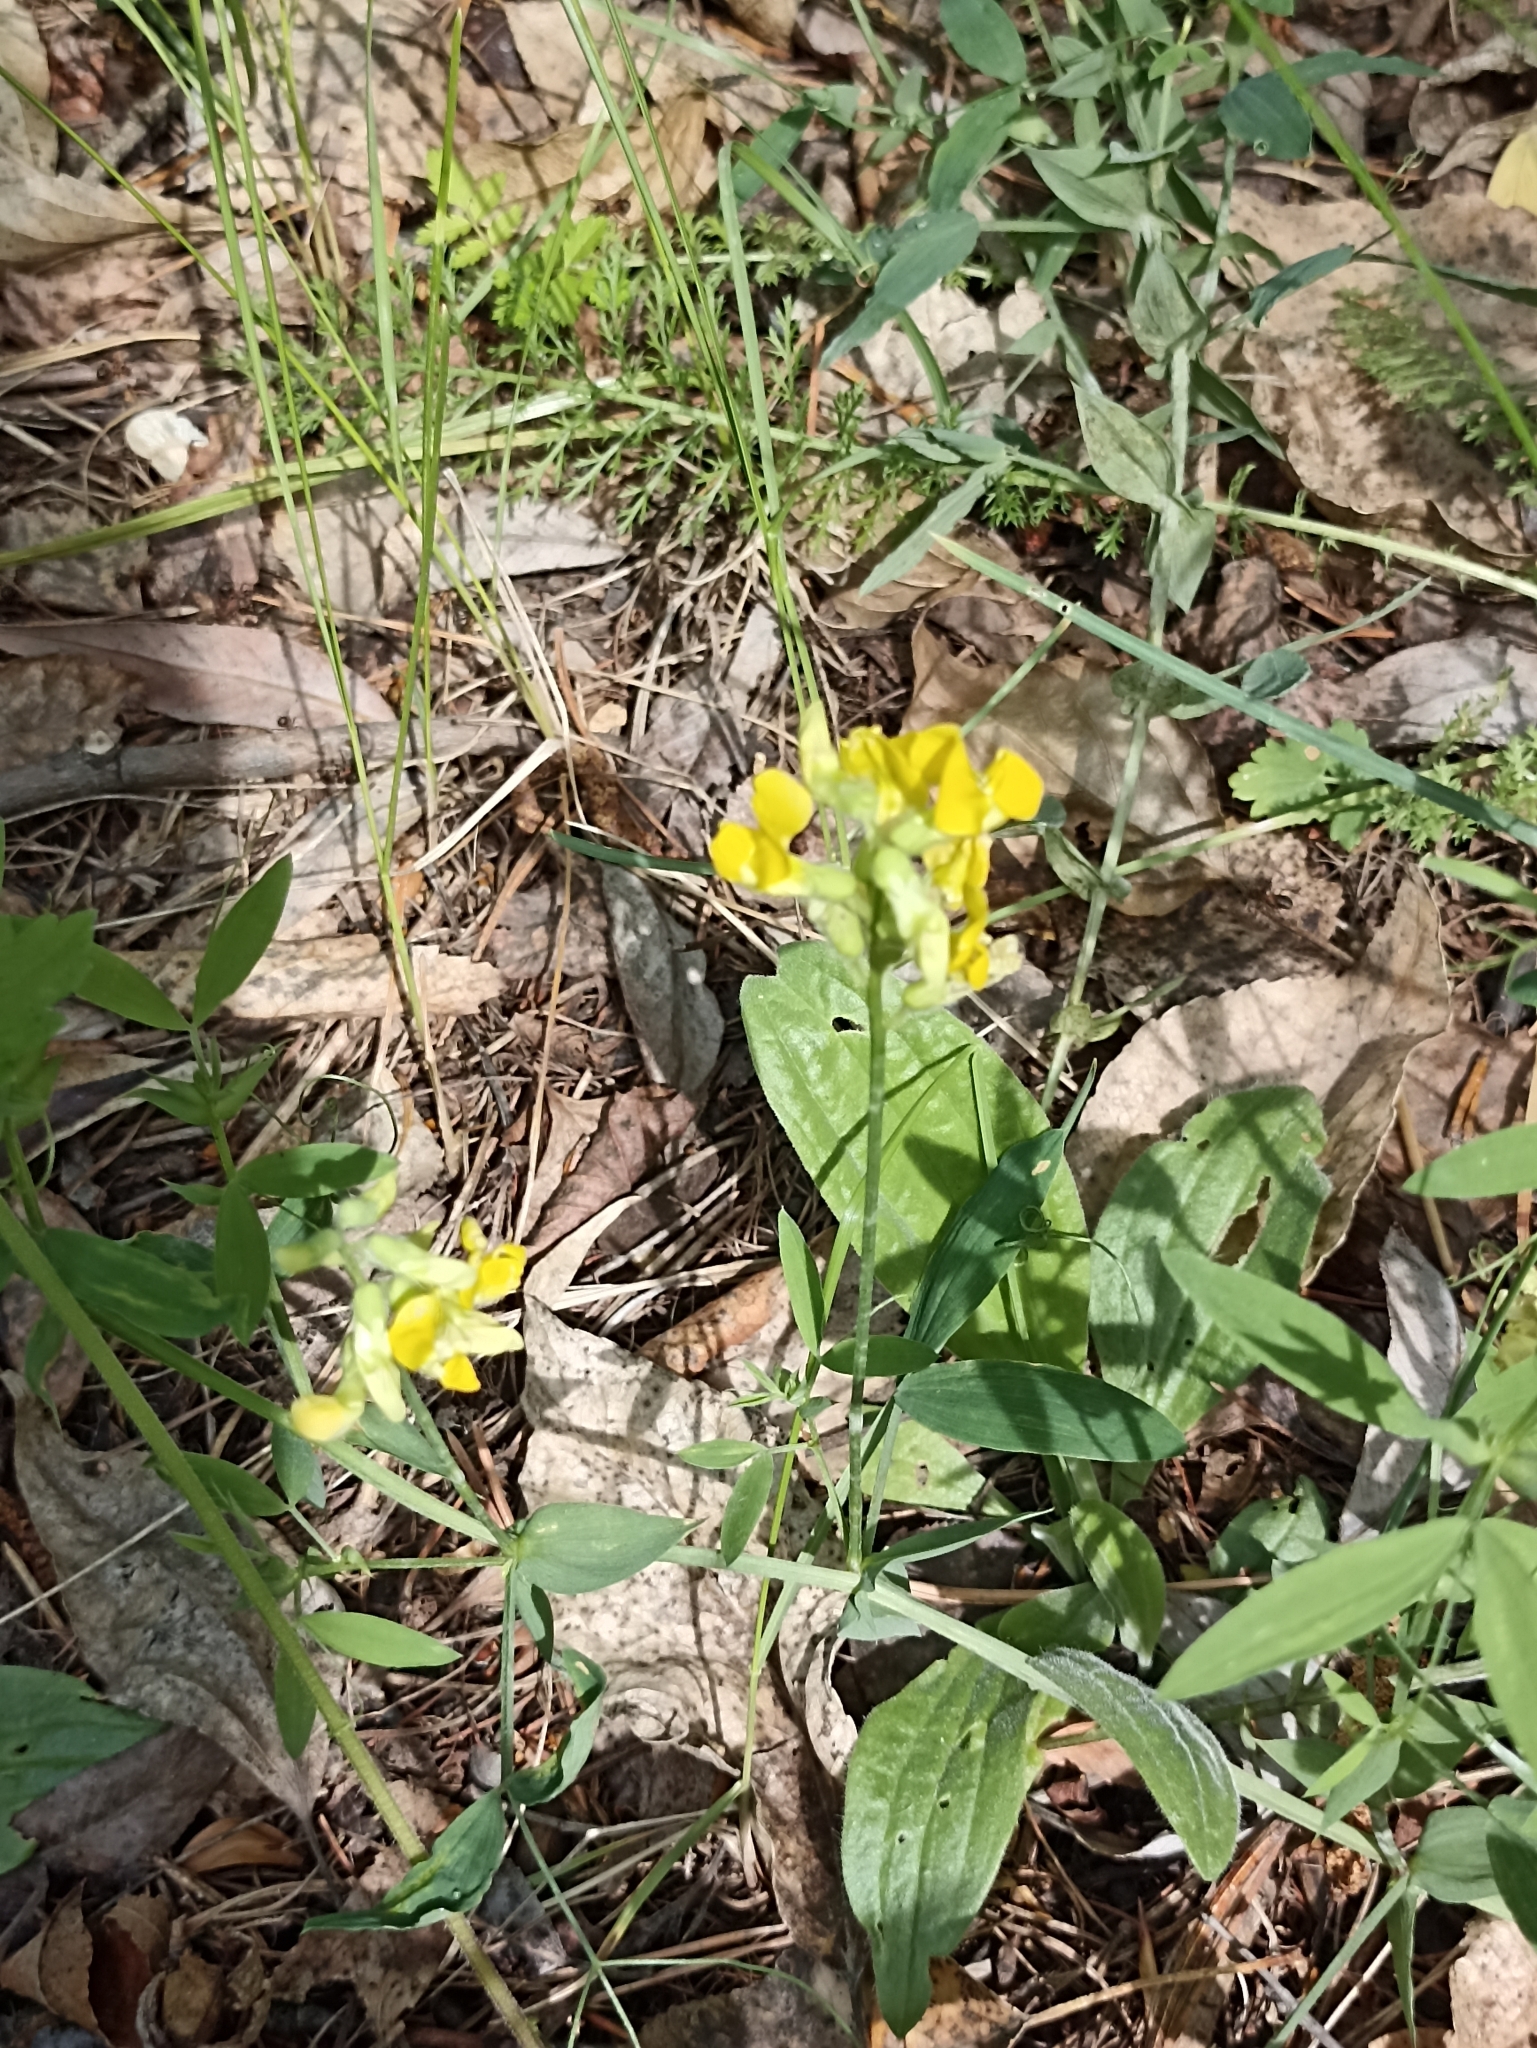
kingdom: Plantae
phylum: Tracheophyta
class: Magnoliopsida
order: Fabales
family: Fabaceae
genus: Lathyrus
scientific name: Lathyrus pratensis
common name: Meadow vetchling
